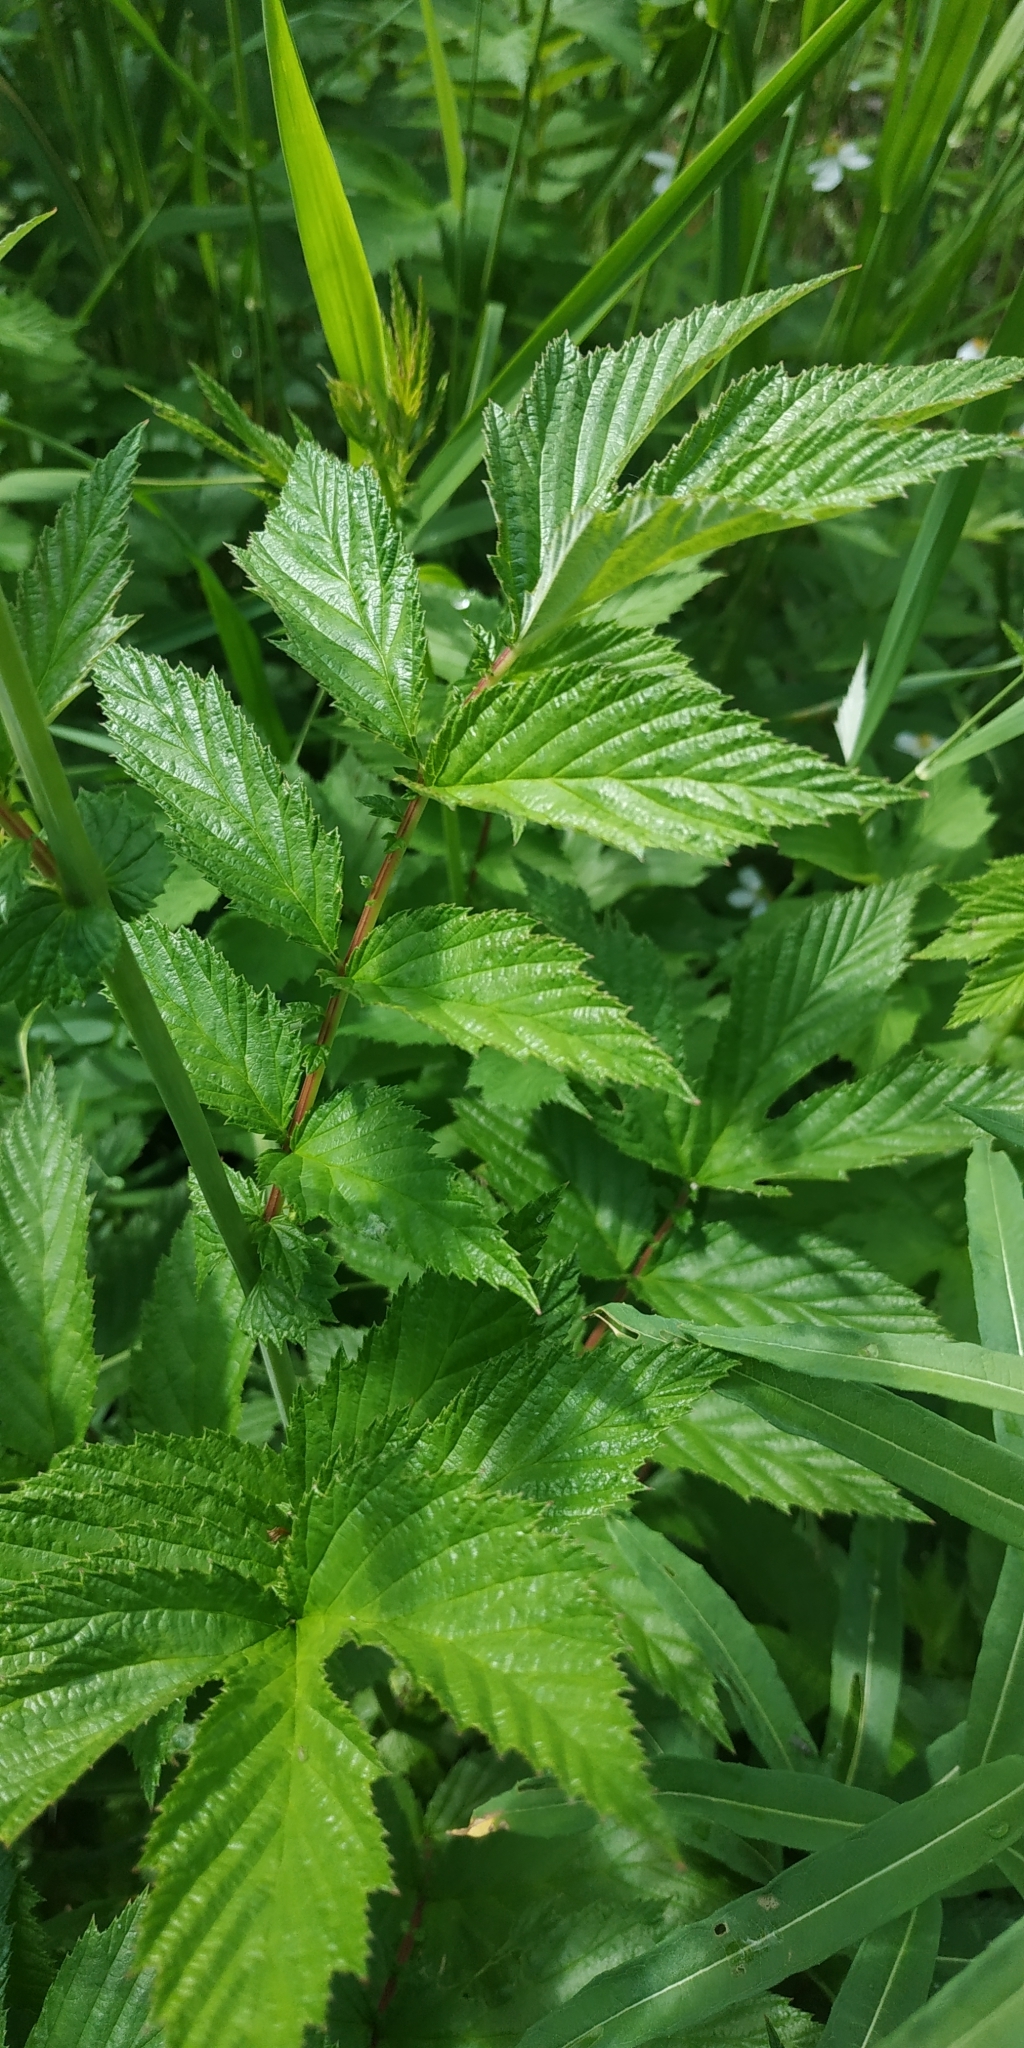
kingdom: Plantae
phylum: Tracheophyta
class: Magnoliopsida
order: Rosales
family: Rosaceae
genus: Filipendula
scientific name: Filipendula ulmaria
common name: Meadowsweet
